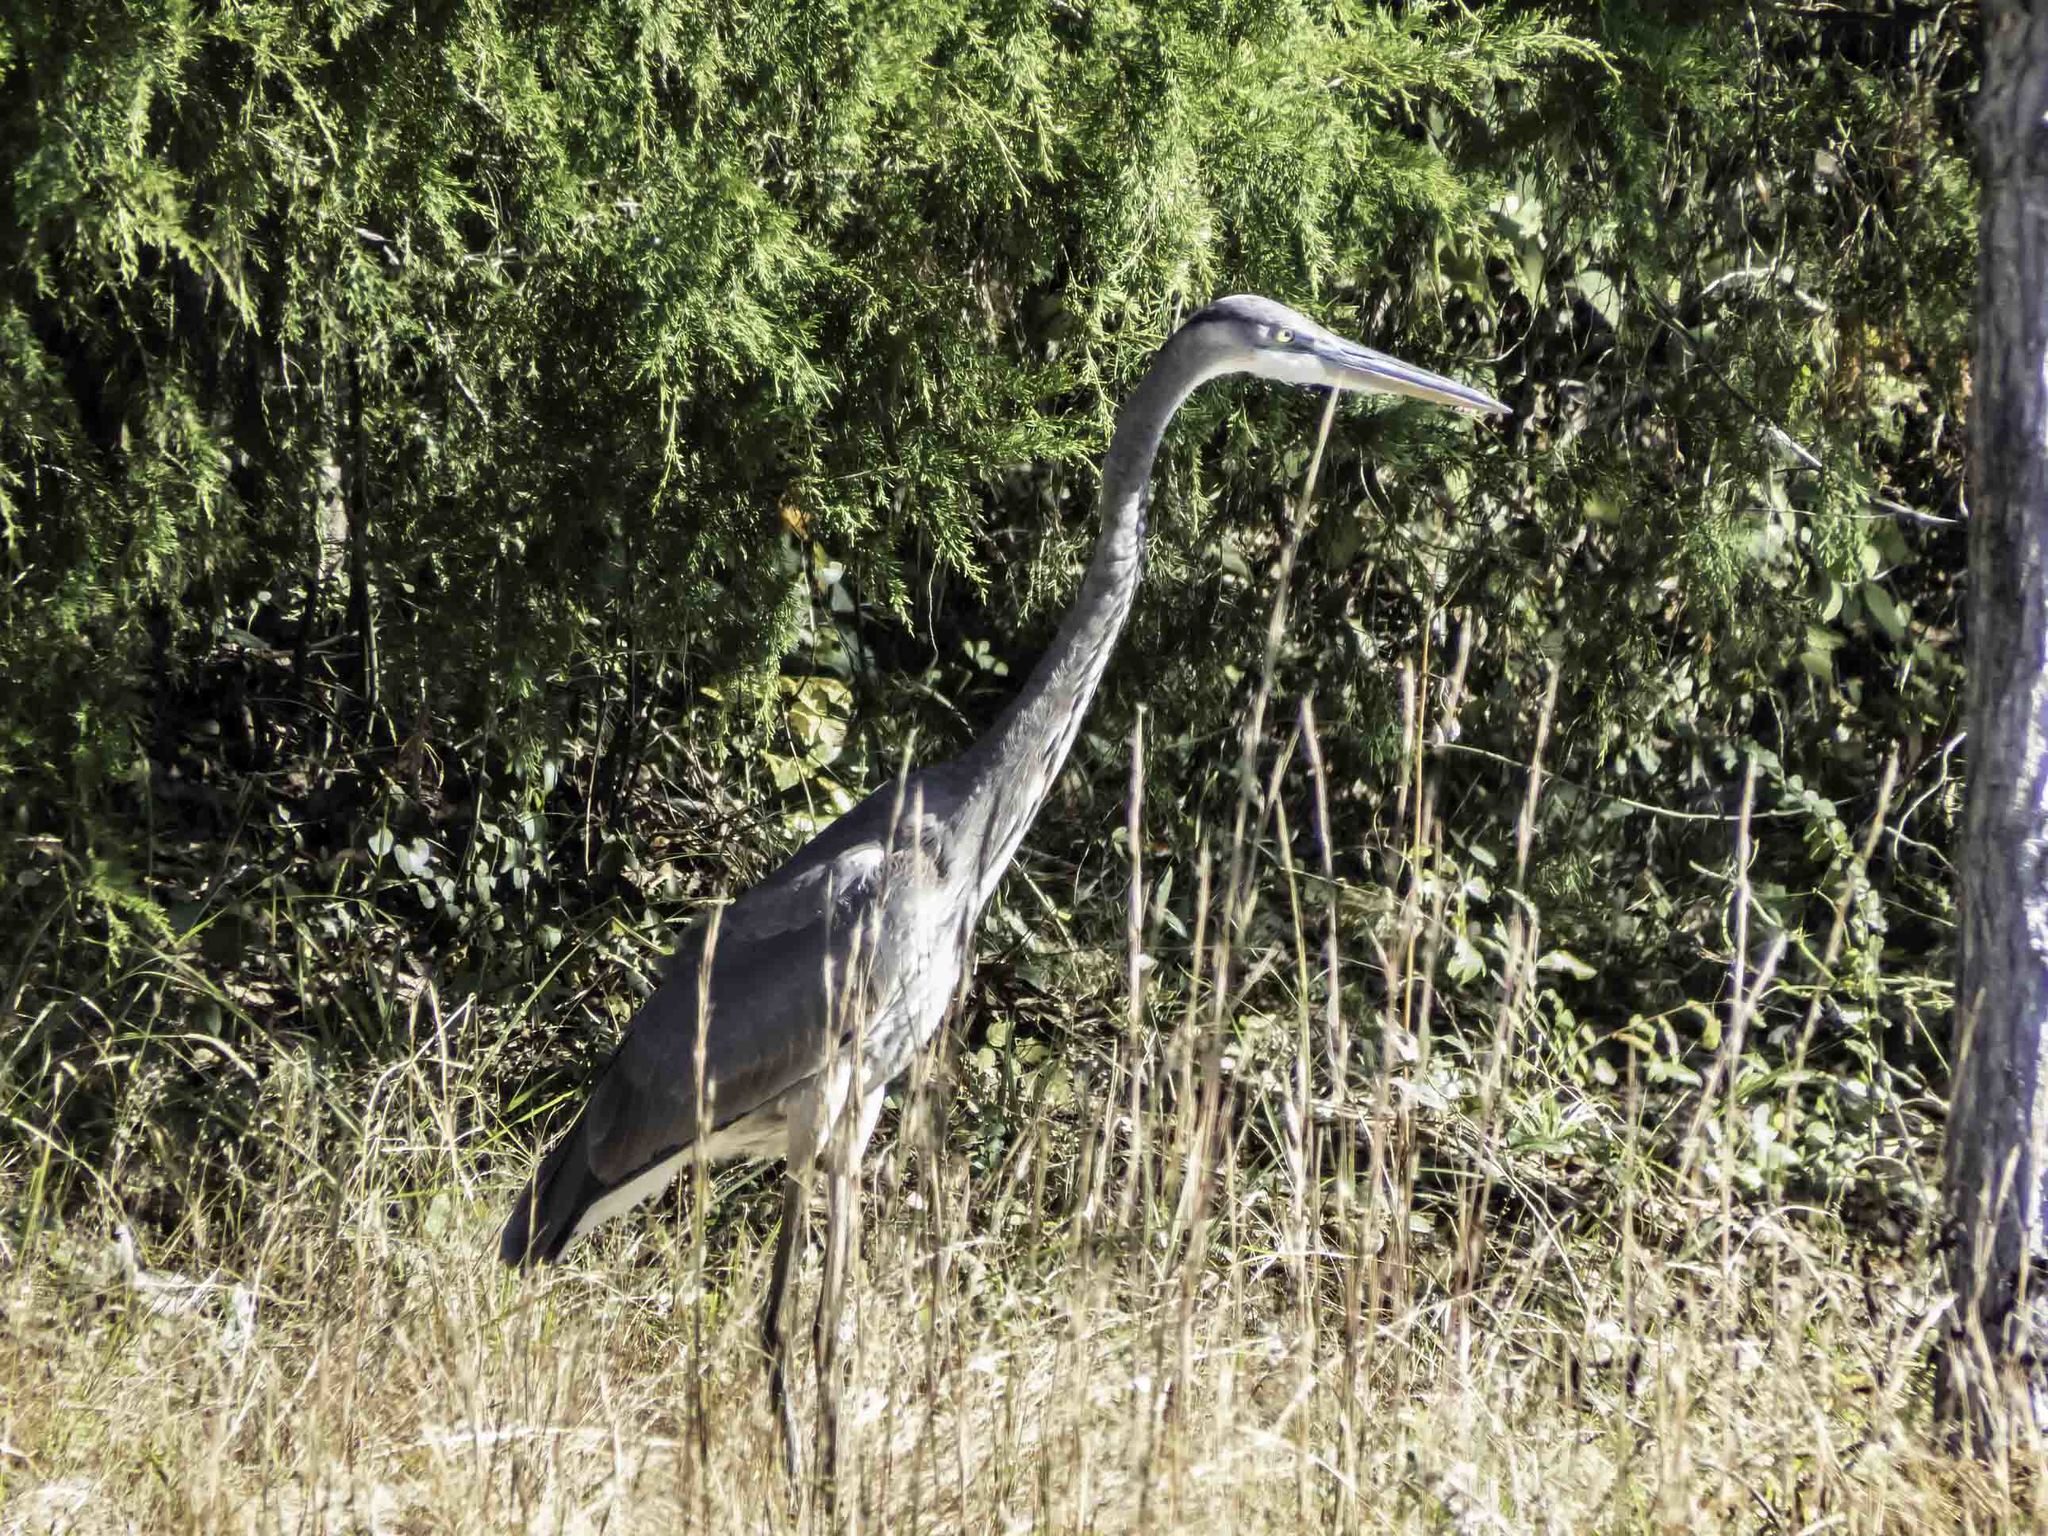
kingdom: Animalia
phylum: Chordata
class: Aves
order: Pelecaniformes
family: Ardeidae
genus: Ardea
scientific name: Ardea herodias
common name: Great blue heron
